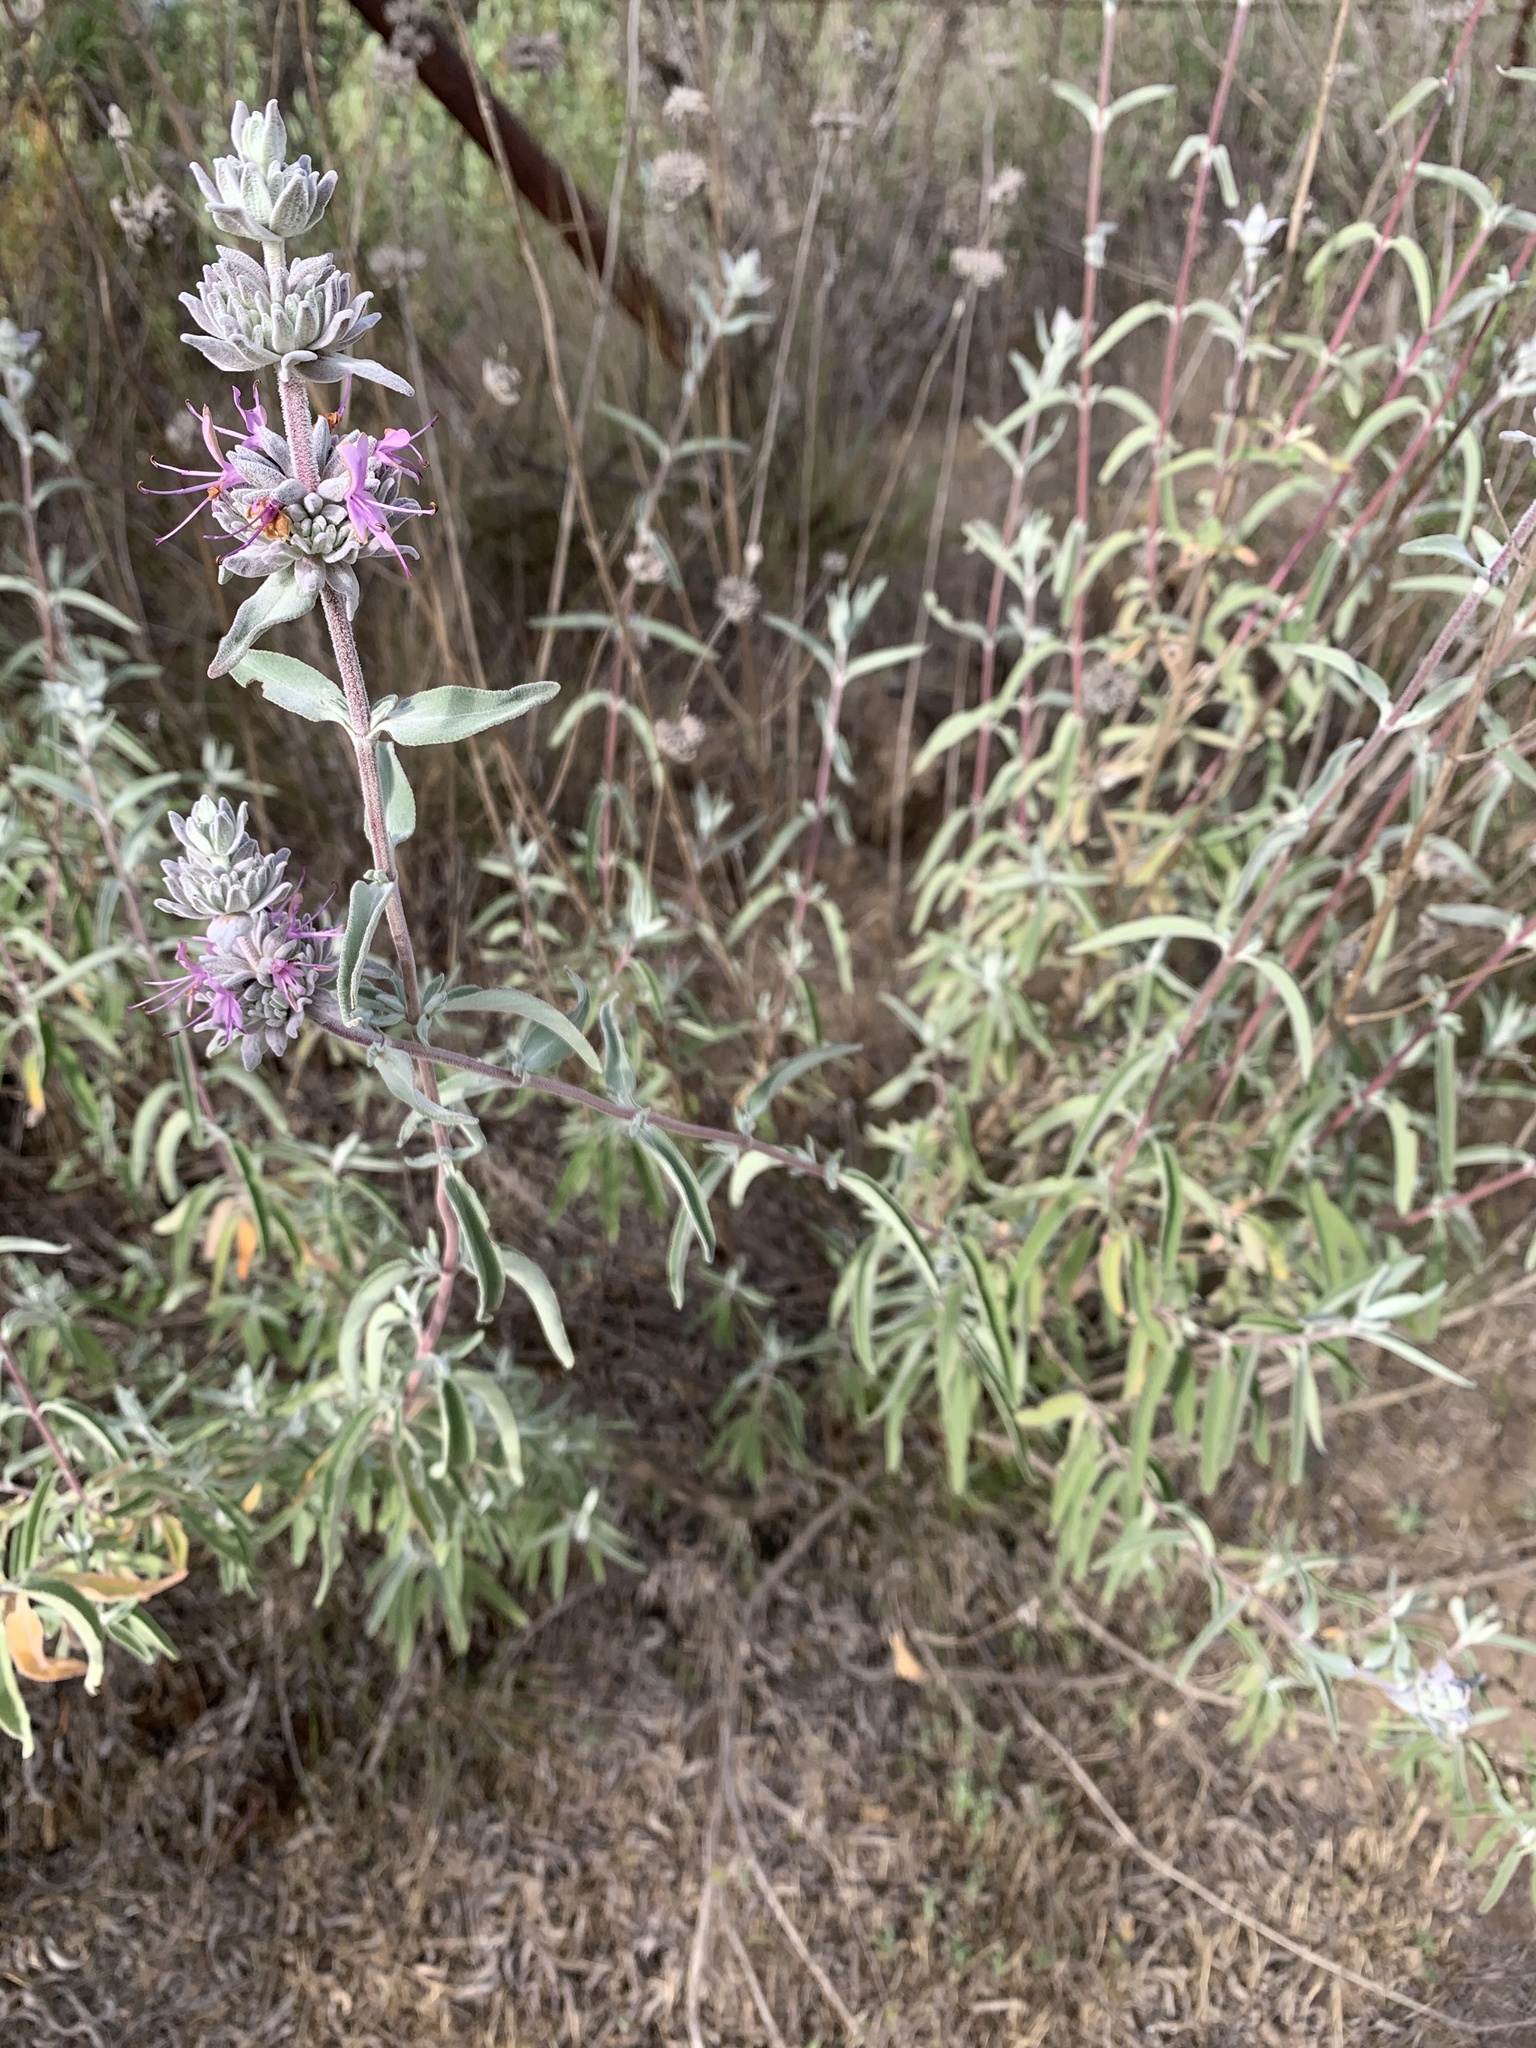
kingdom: Plantae
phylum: Tracheophyta
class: Magnoliopsida
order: Lamiales
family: Lamiaceae
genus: Salvia
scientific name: Salvia leucophylla
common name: Purple sage
